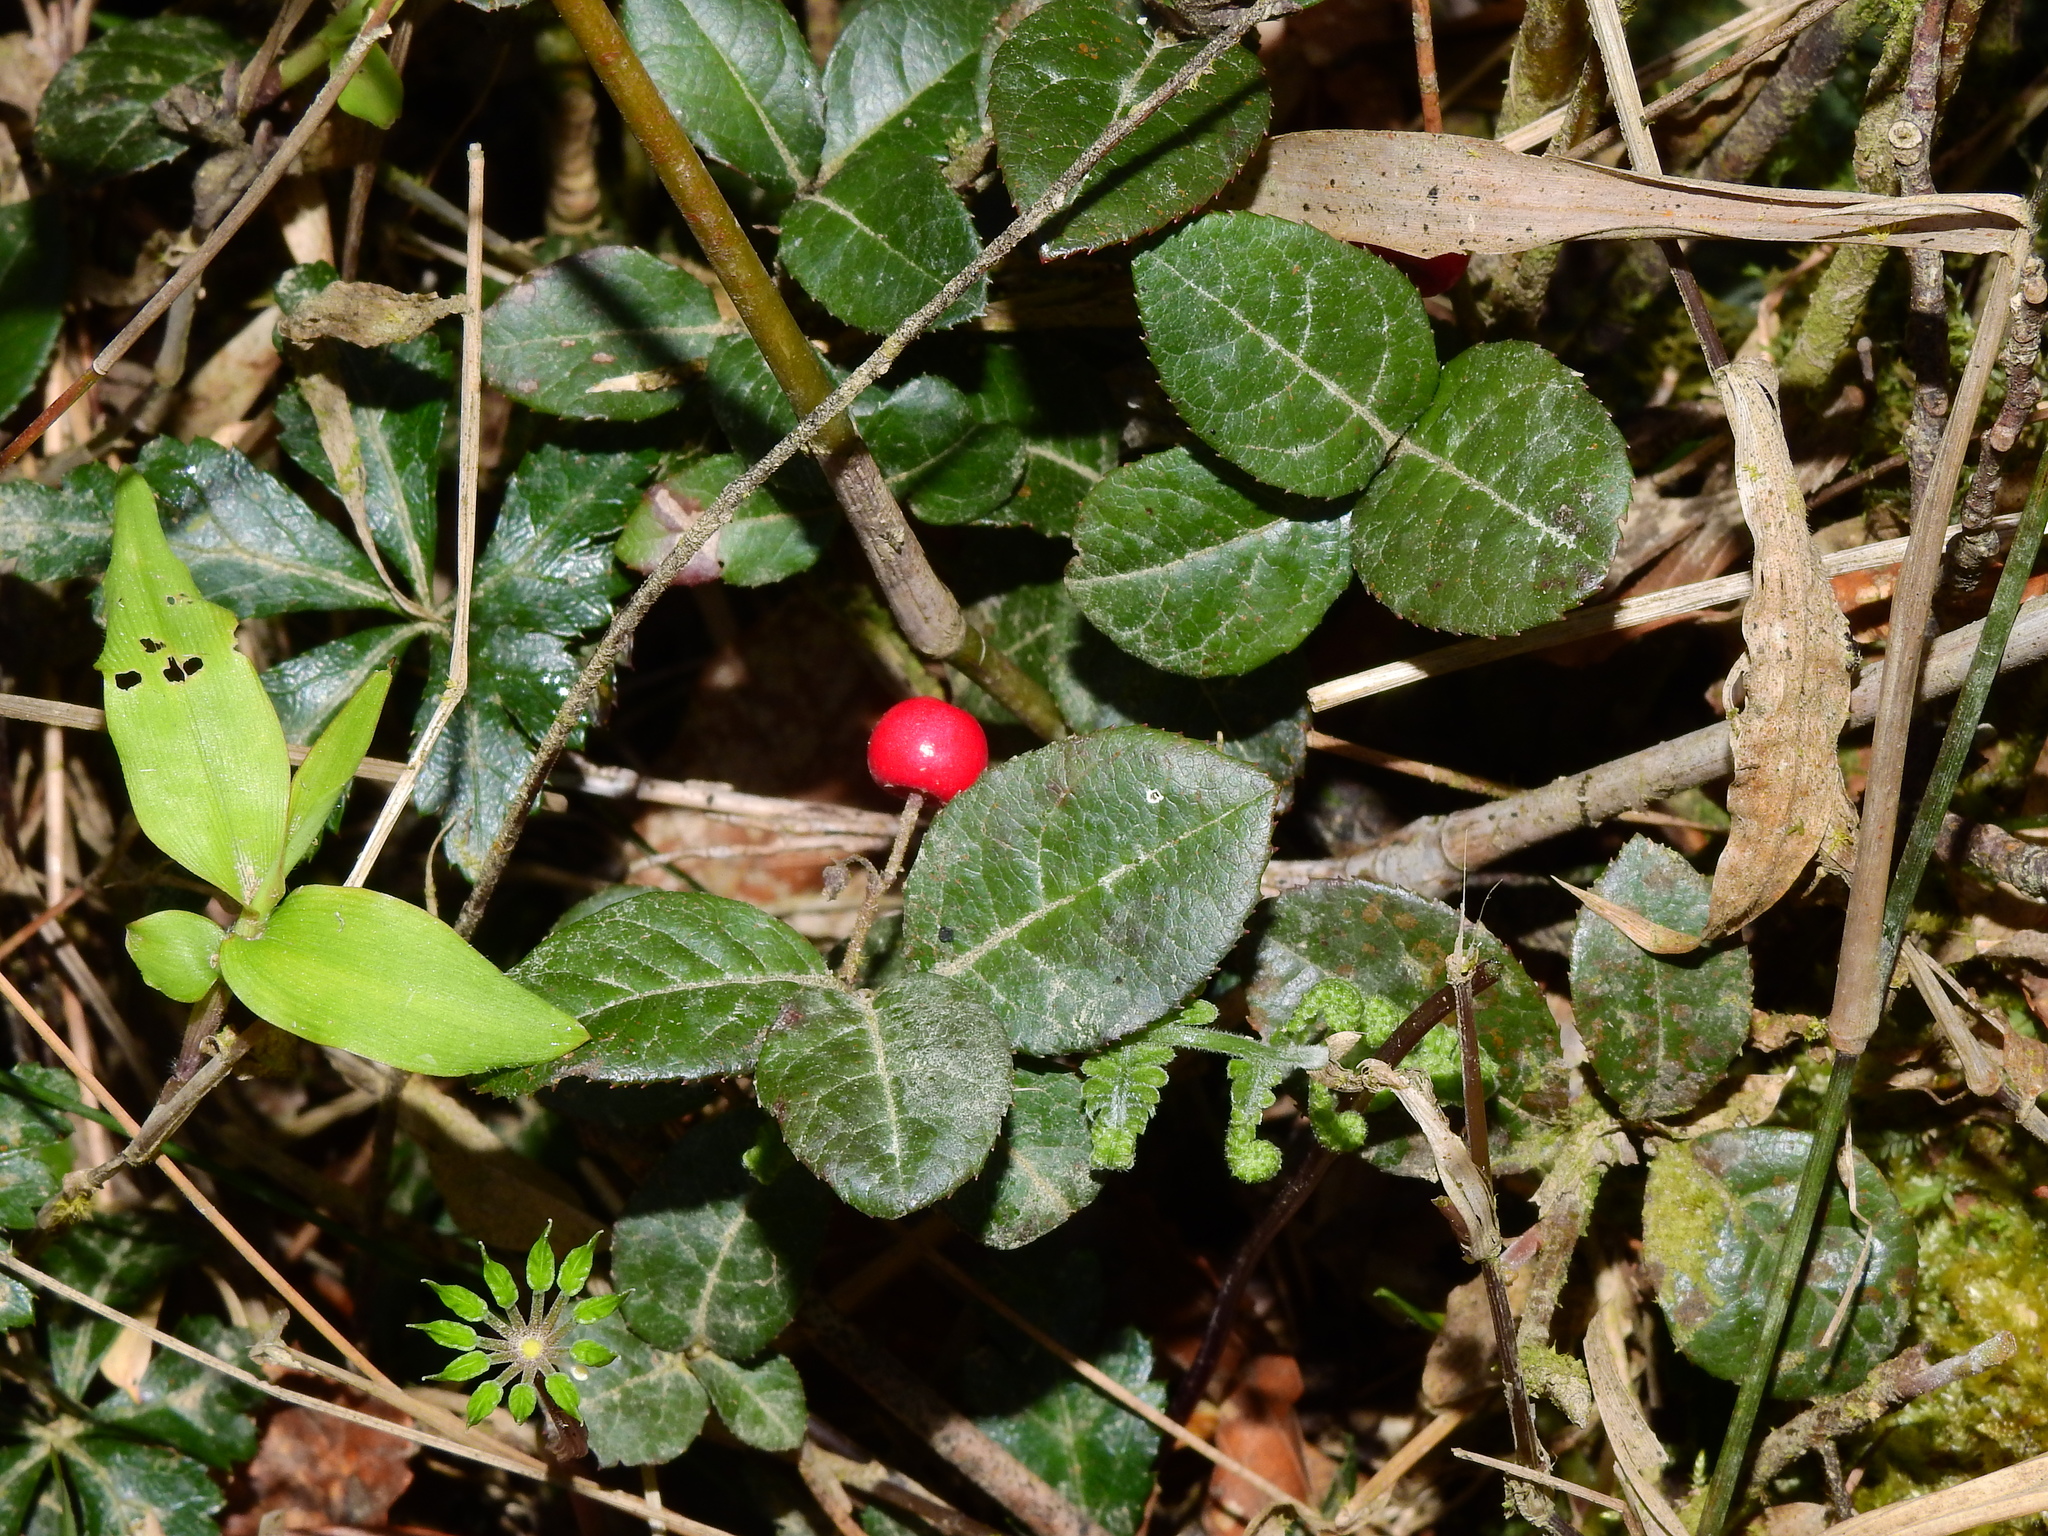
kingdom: Plantae
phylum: Tracheophyta
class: Magnoliopsida
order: Ericales
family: Primulaceae
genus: Ardisia
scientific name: Ardisia japonica
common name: Marlberry
